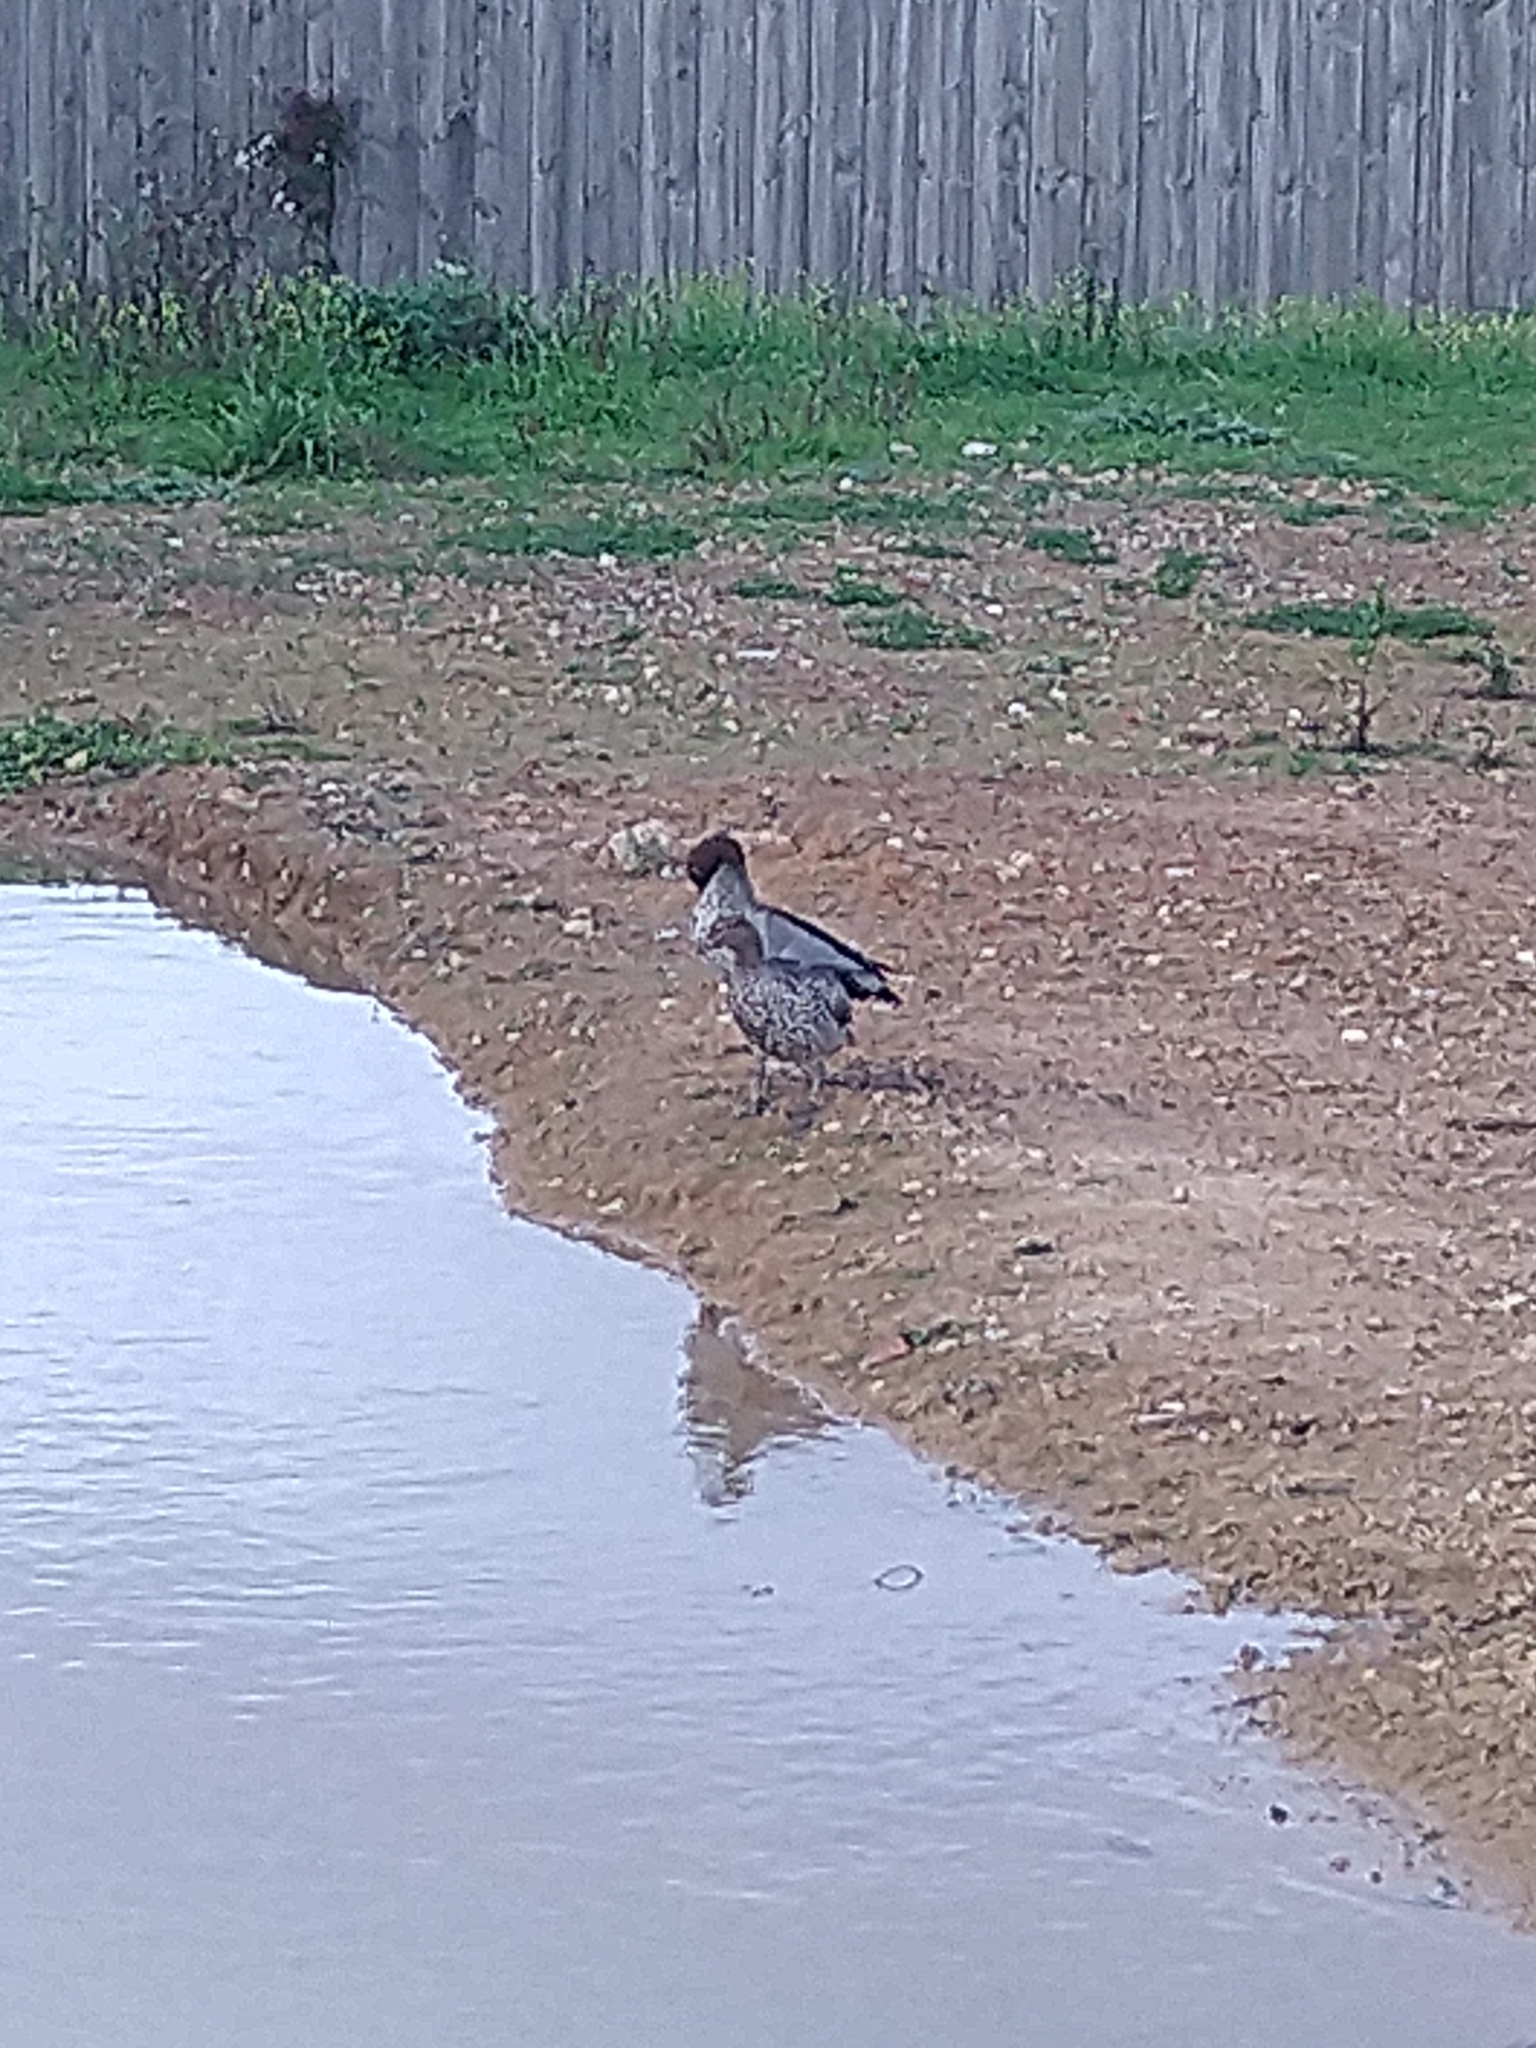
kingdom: Animalia
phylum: Chordata
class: Aves
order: Anseriformes
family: Anatidae
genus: Chenonetta
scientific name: Chenonetta jubata
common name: Maned duck
